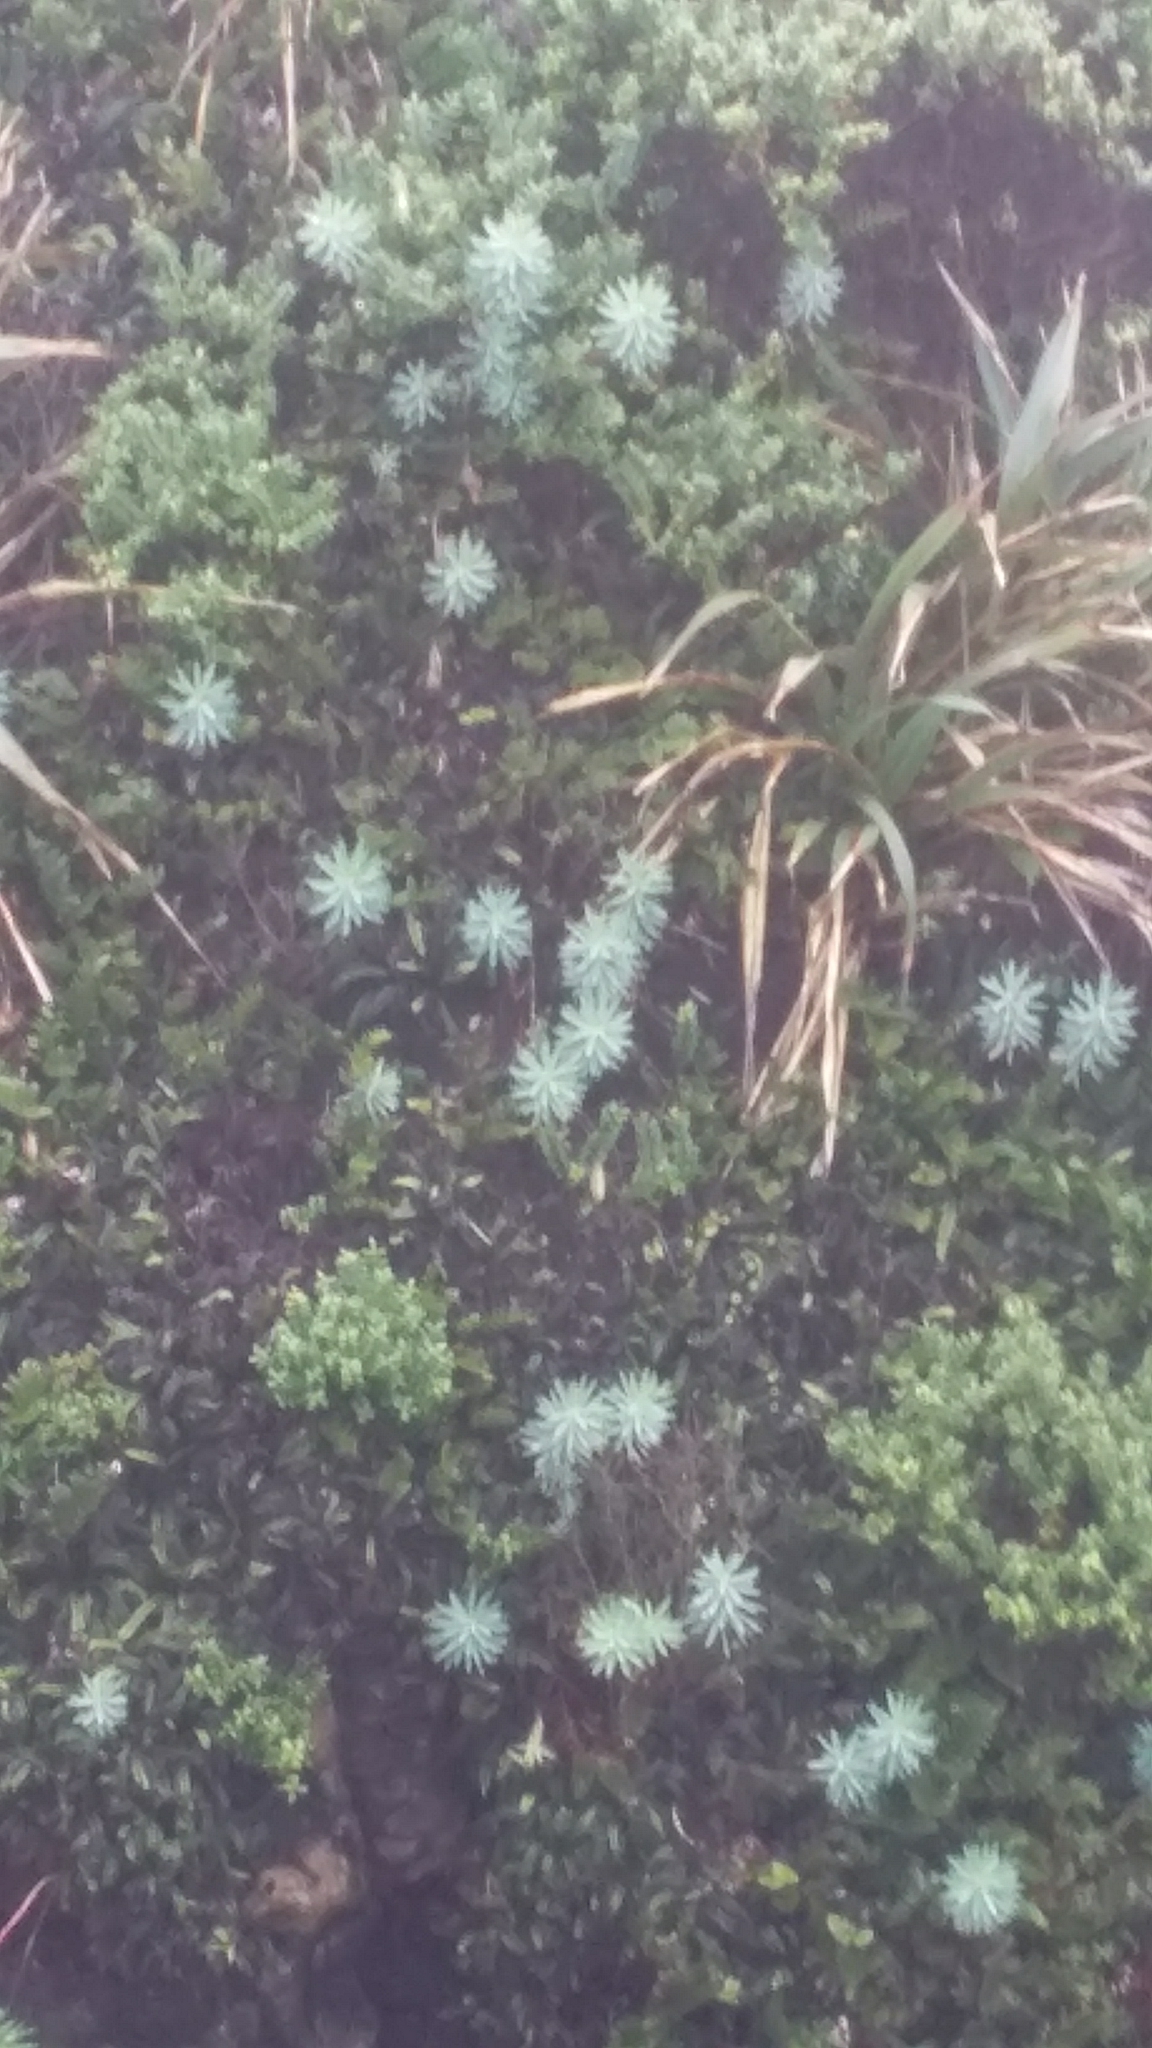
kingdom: Plantae
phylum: Tracheophyta
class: Magnoliopsida
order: Malpighiales
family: Euphorbiaceae
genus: Euphorbia
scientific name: Euphorbia glauca
